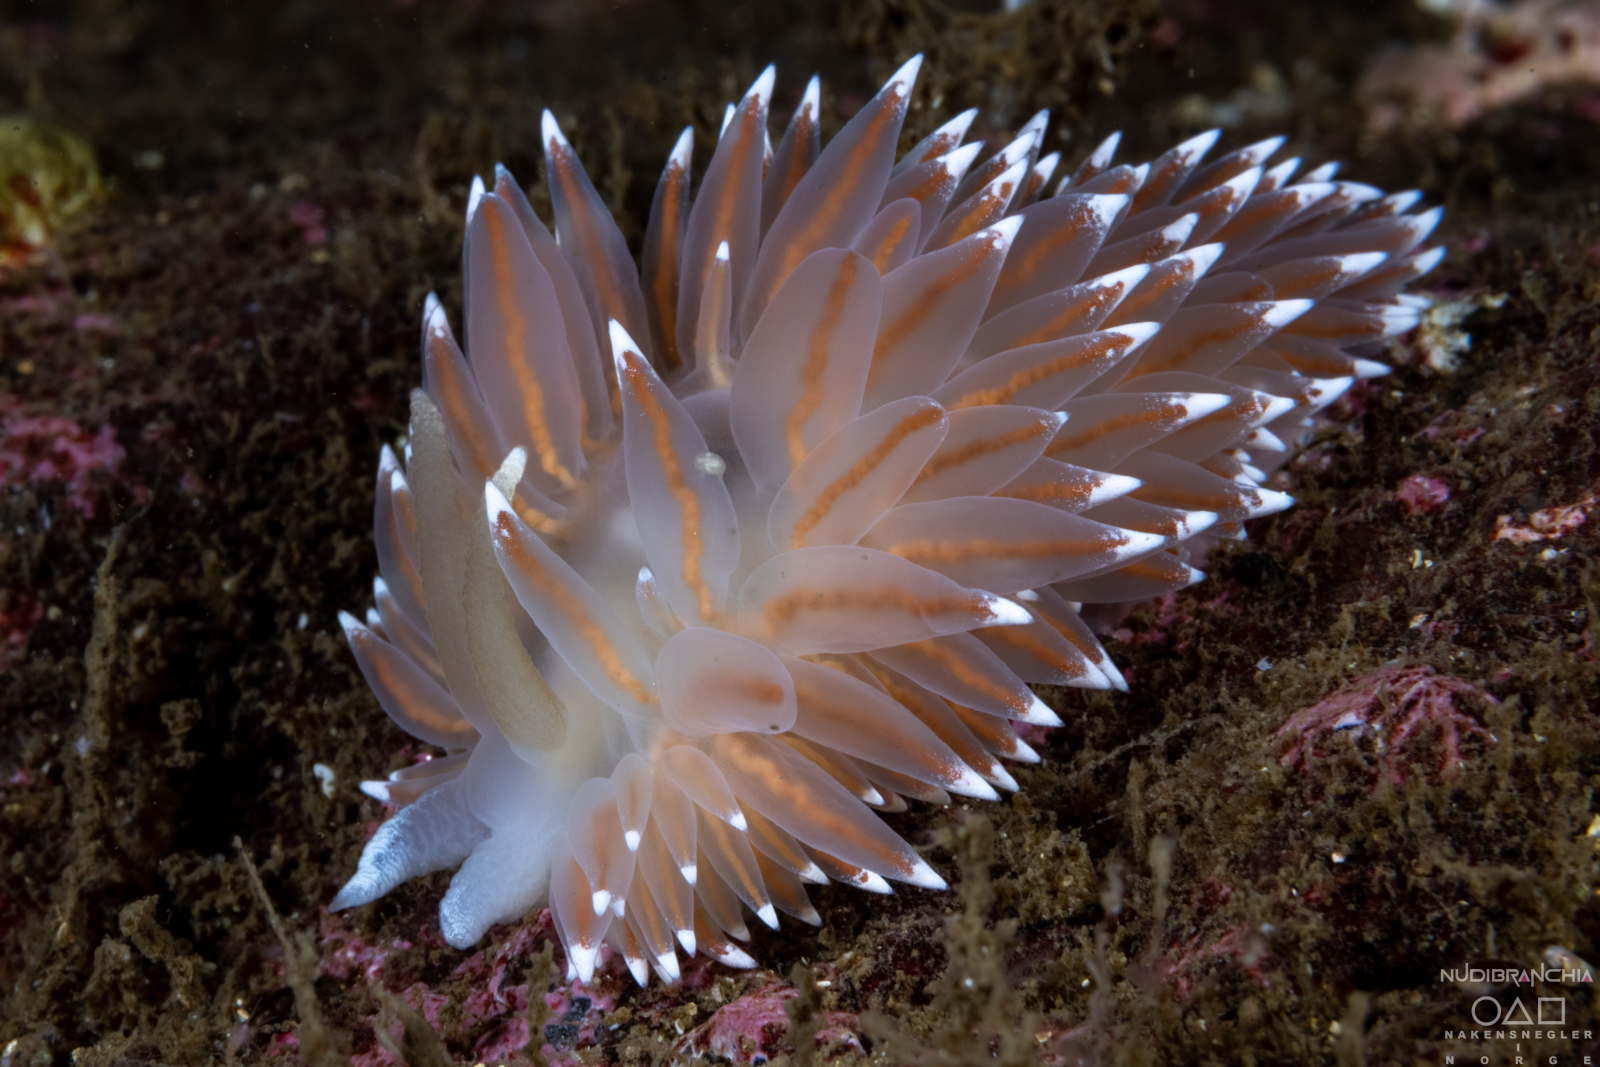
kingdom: Animalia
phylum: Mollusca
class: Gastropoda
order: Nudibranchia
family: Coryphellidae
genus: Coryphella
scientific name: Coryphella nobilis
